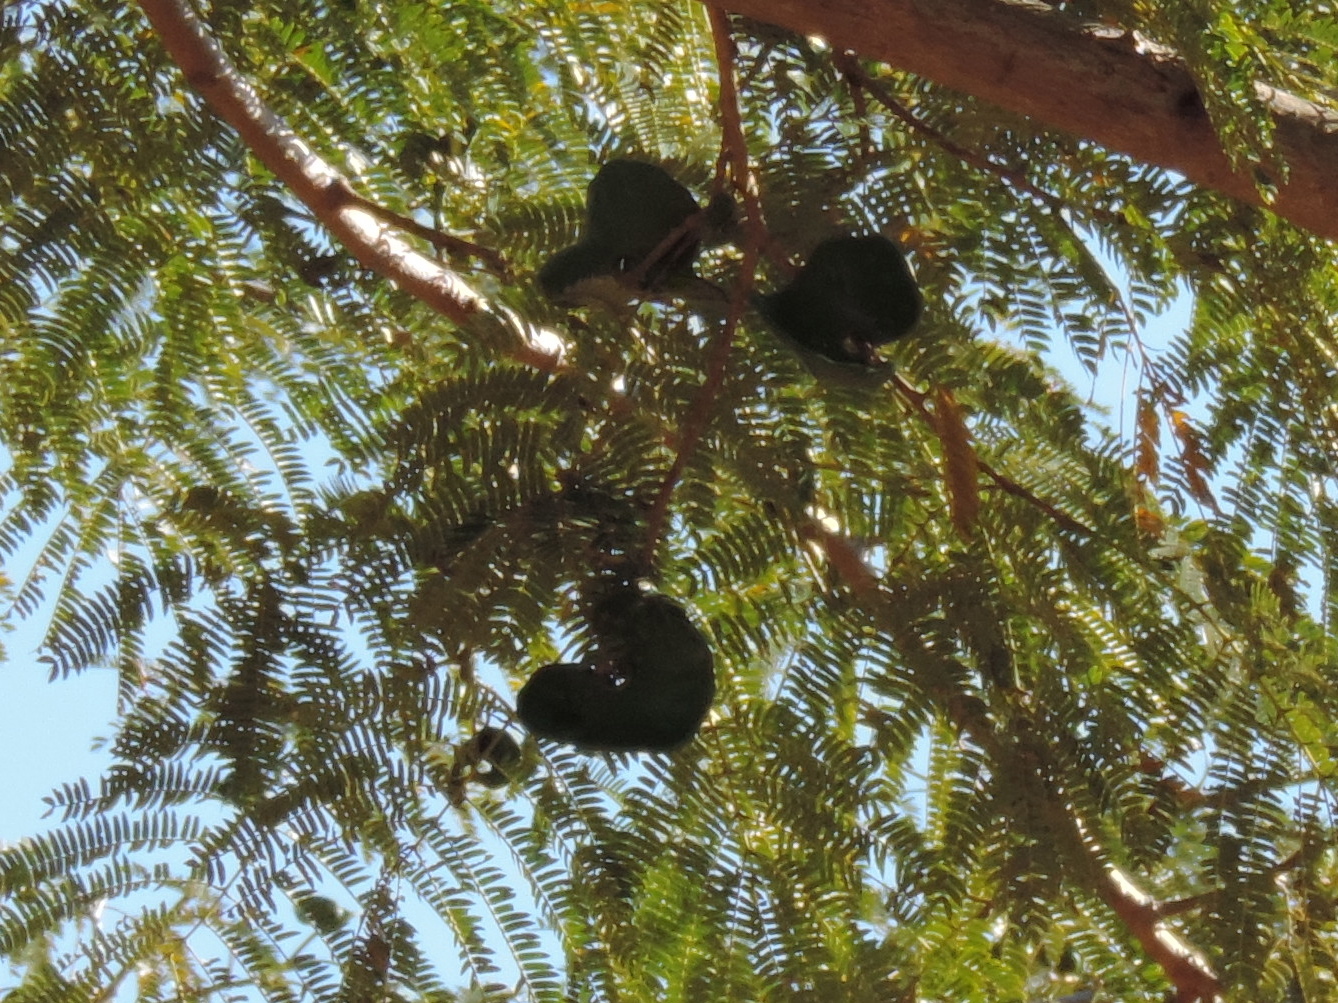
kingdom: Plantae
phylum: Tracheophyta
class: Magnoliopsida
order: Fabales
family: Fabaceae
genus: Enterolobium
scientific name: Enterolobium cyclocarpum
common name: Ear tree
